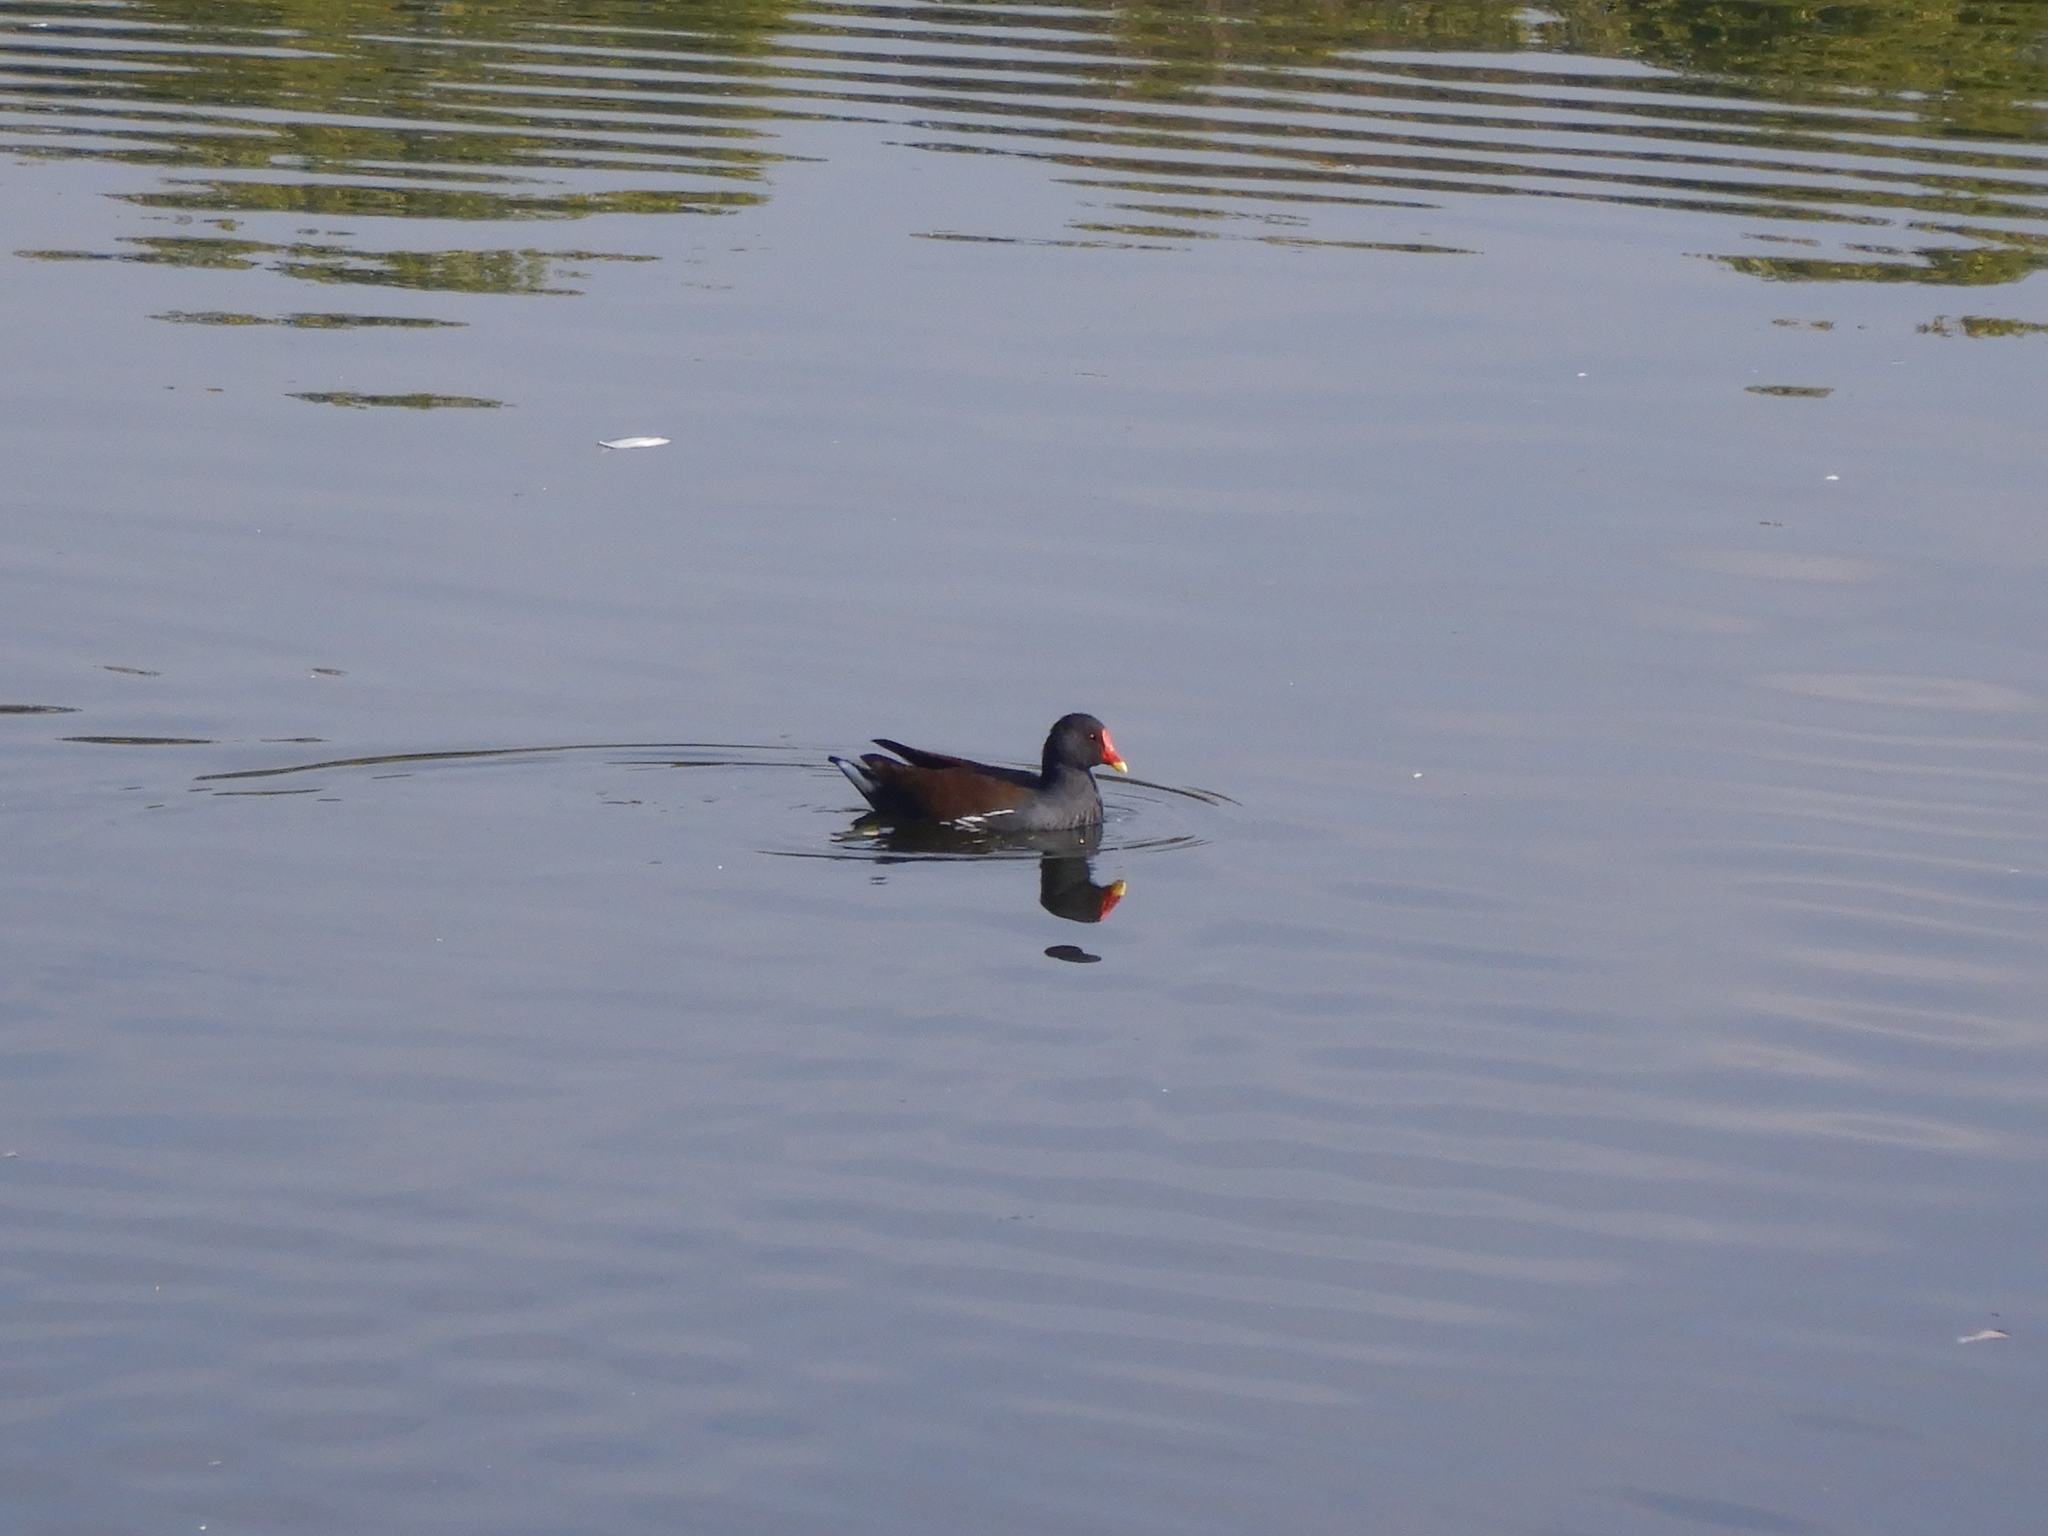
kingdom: Animalia
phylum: Chordata
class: Aves
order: Gruiformes
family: Rallidae
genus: Gallinula
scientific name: Gallinula chloropus
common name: Common moorhen
